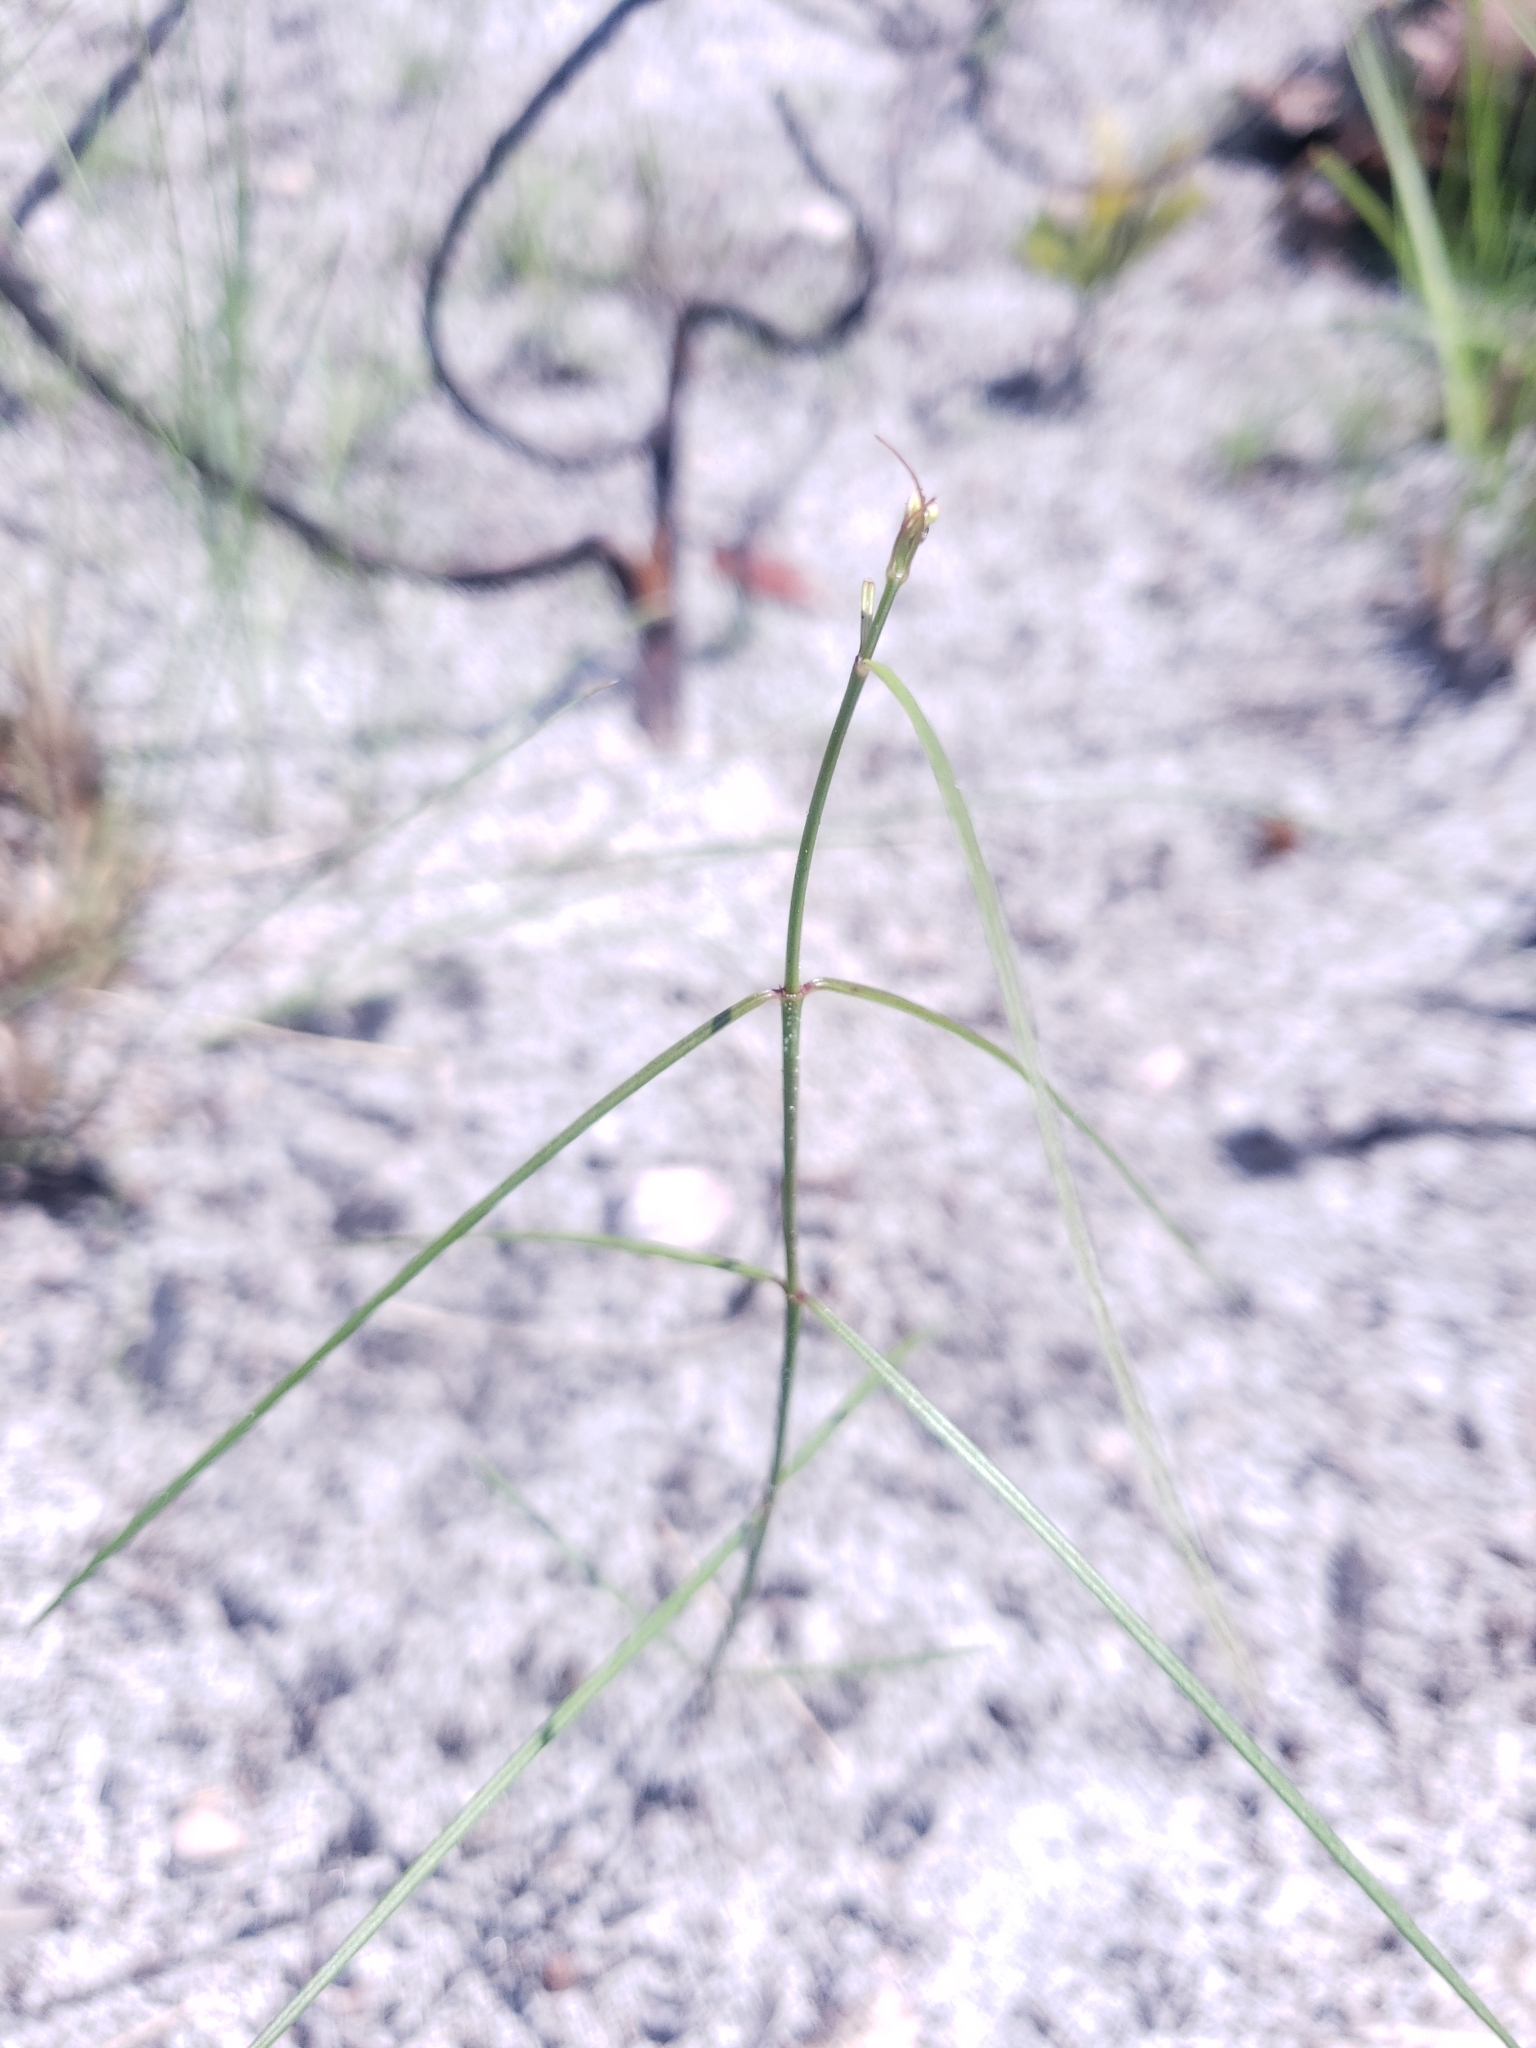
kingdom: Plantae
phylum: Tracheophyta
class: Magnoliopsida
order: Gentianales
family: Apocynaceae
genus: Asclepias
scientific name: Asclepias feayi
